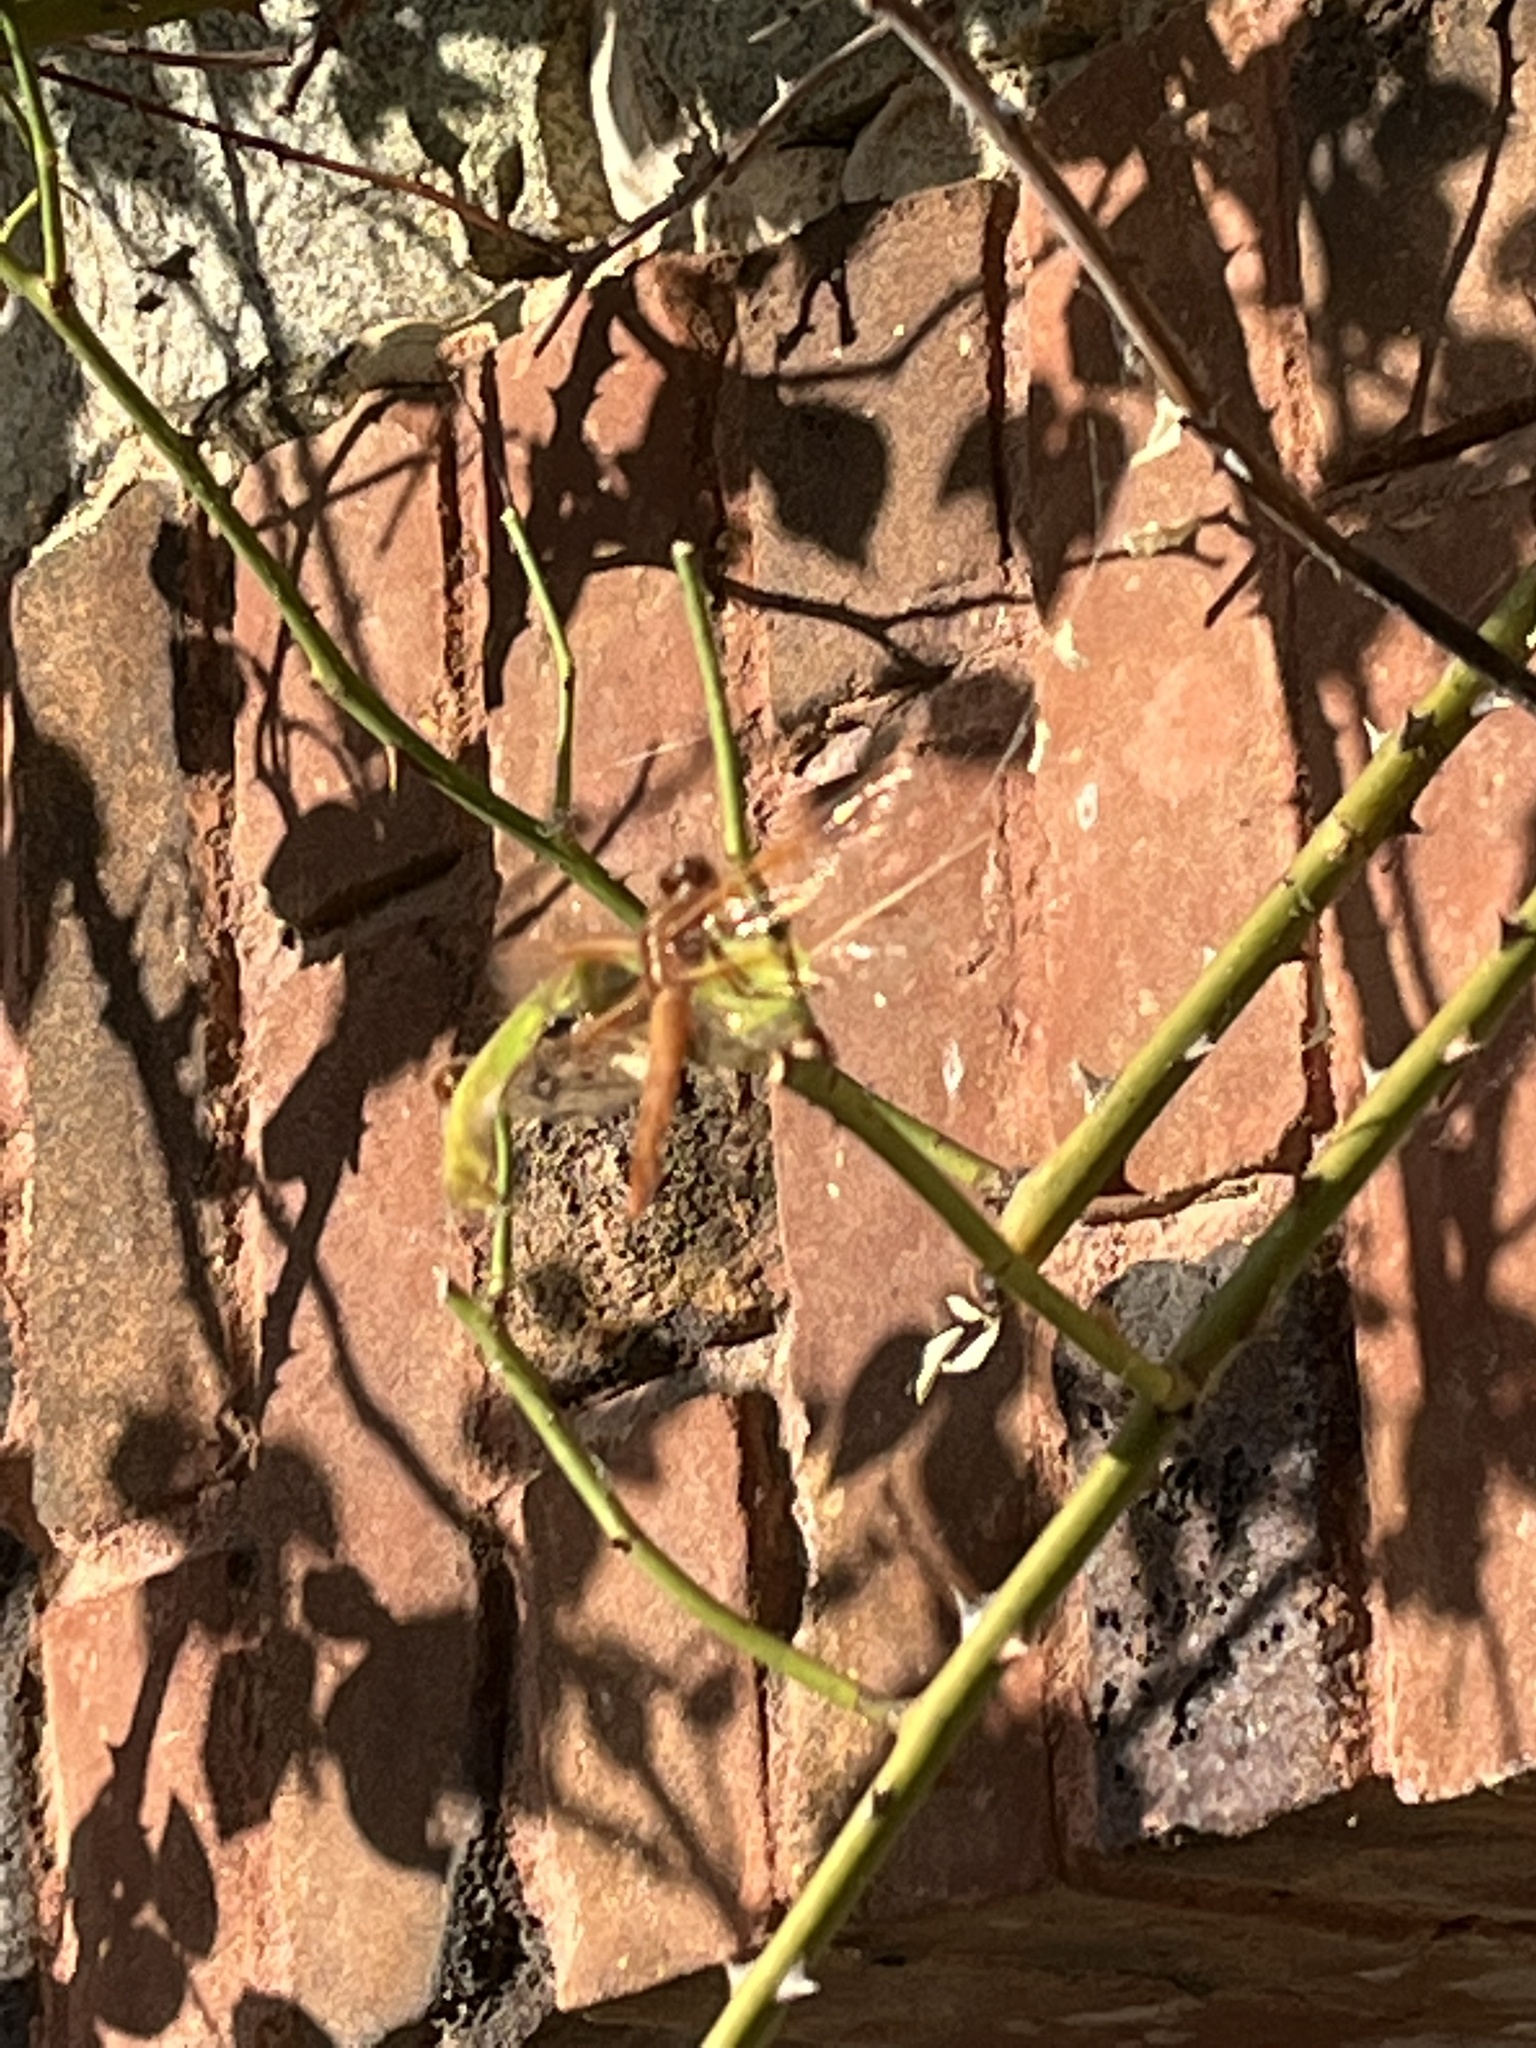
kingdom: Animalia
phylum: Arthropoda
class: Insecta
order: Odonata
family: Libellulidae
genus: Libellula
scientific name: Libellula saturata
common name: Flame skimmer
